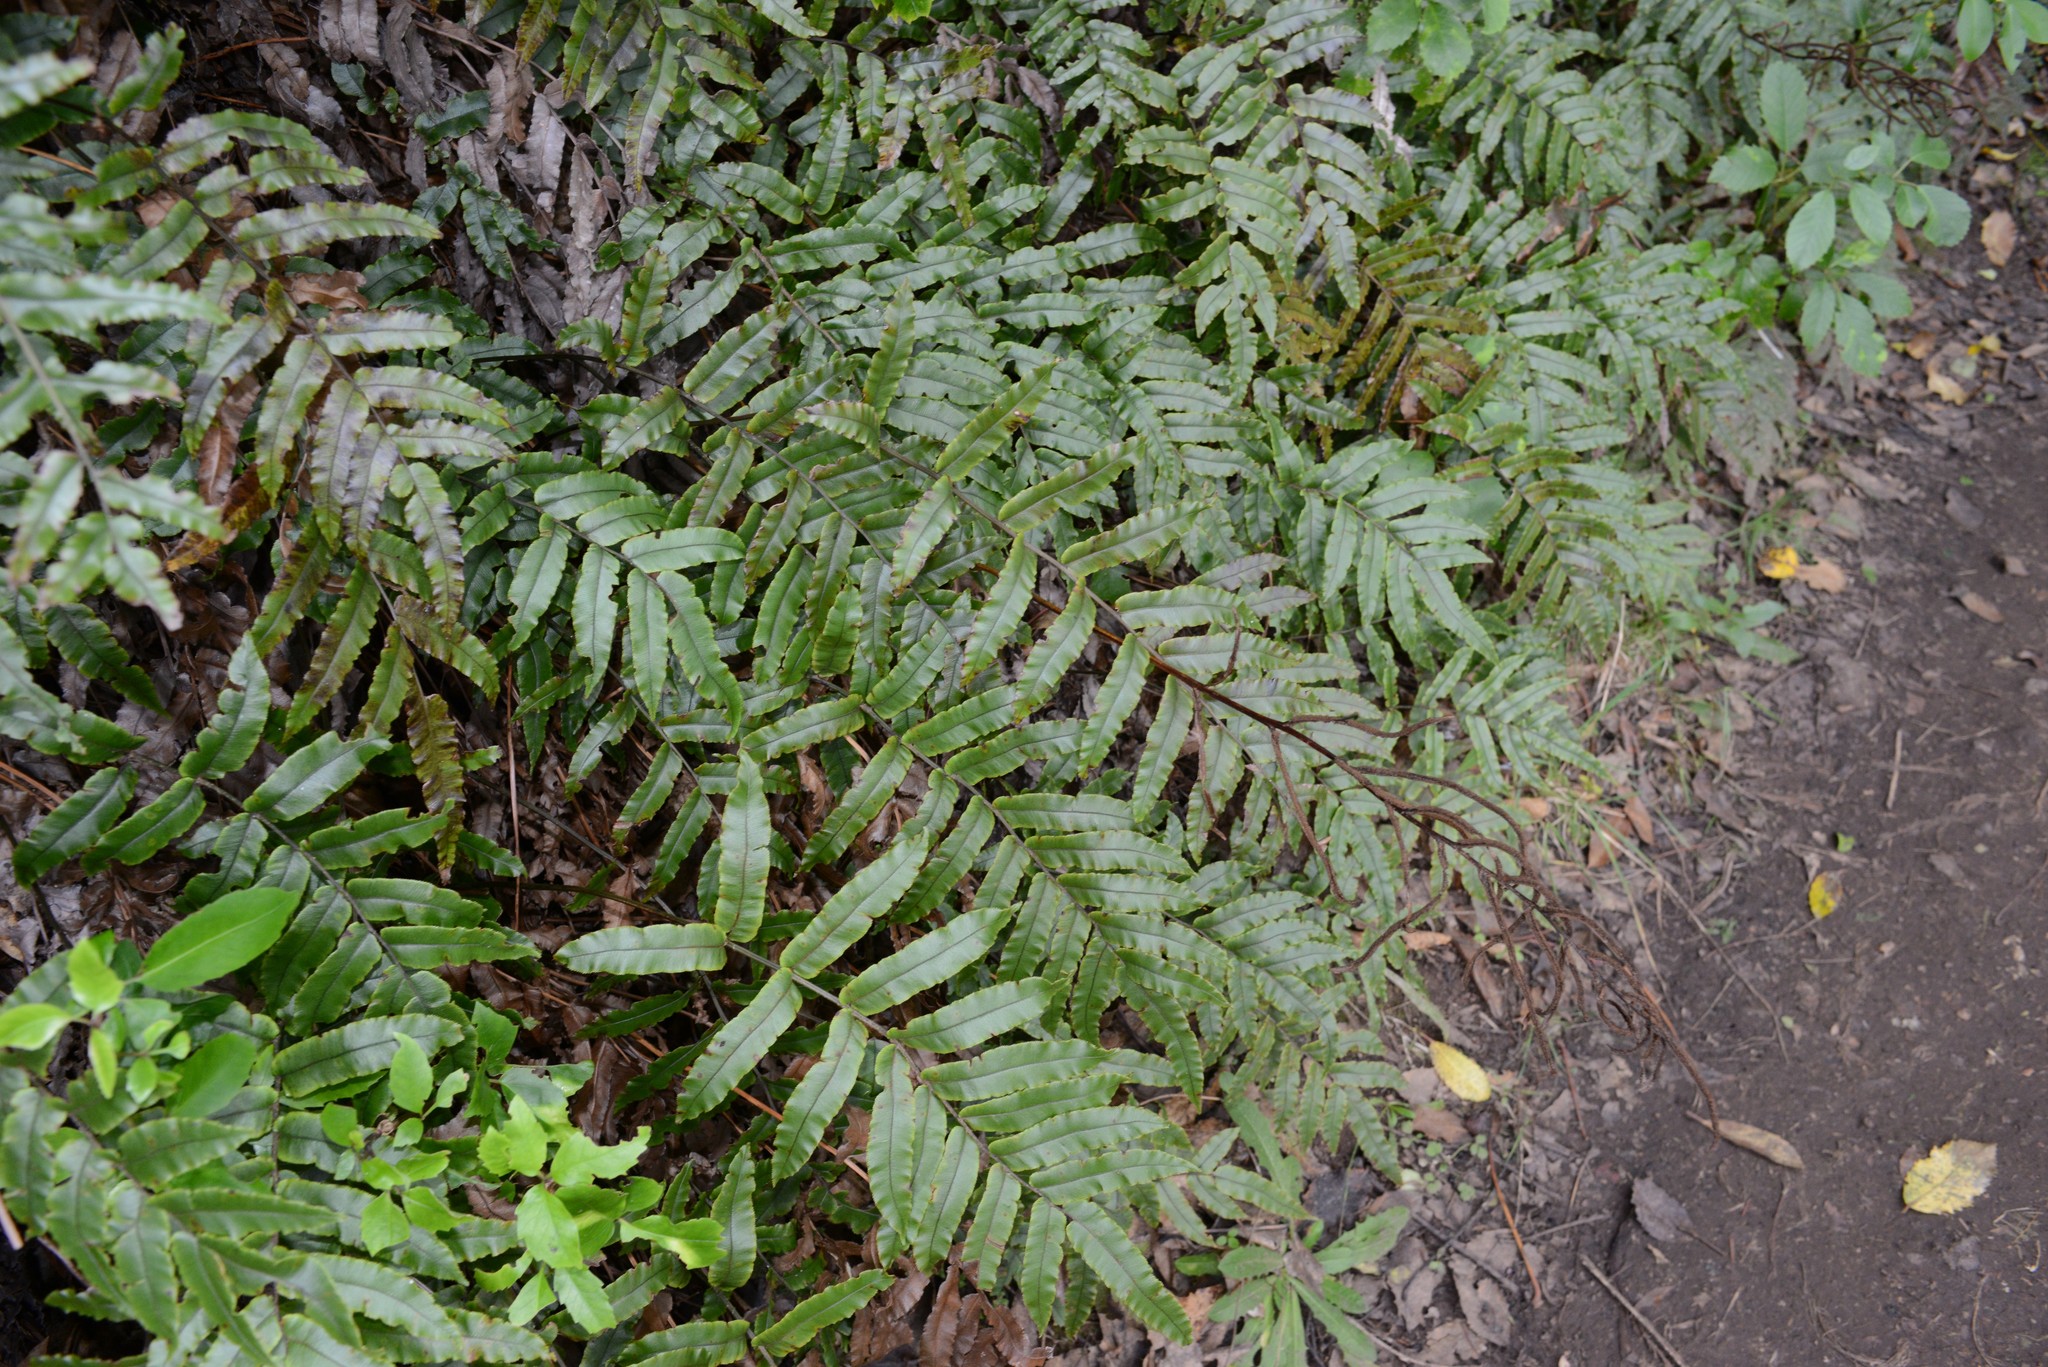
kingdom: Plantae
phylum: Tracheophyta
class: Polypodiopsida
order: Polypodiales
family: Blechnaceae
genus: Parablechnum
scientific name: Parablechnum procerum
